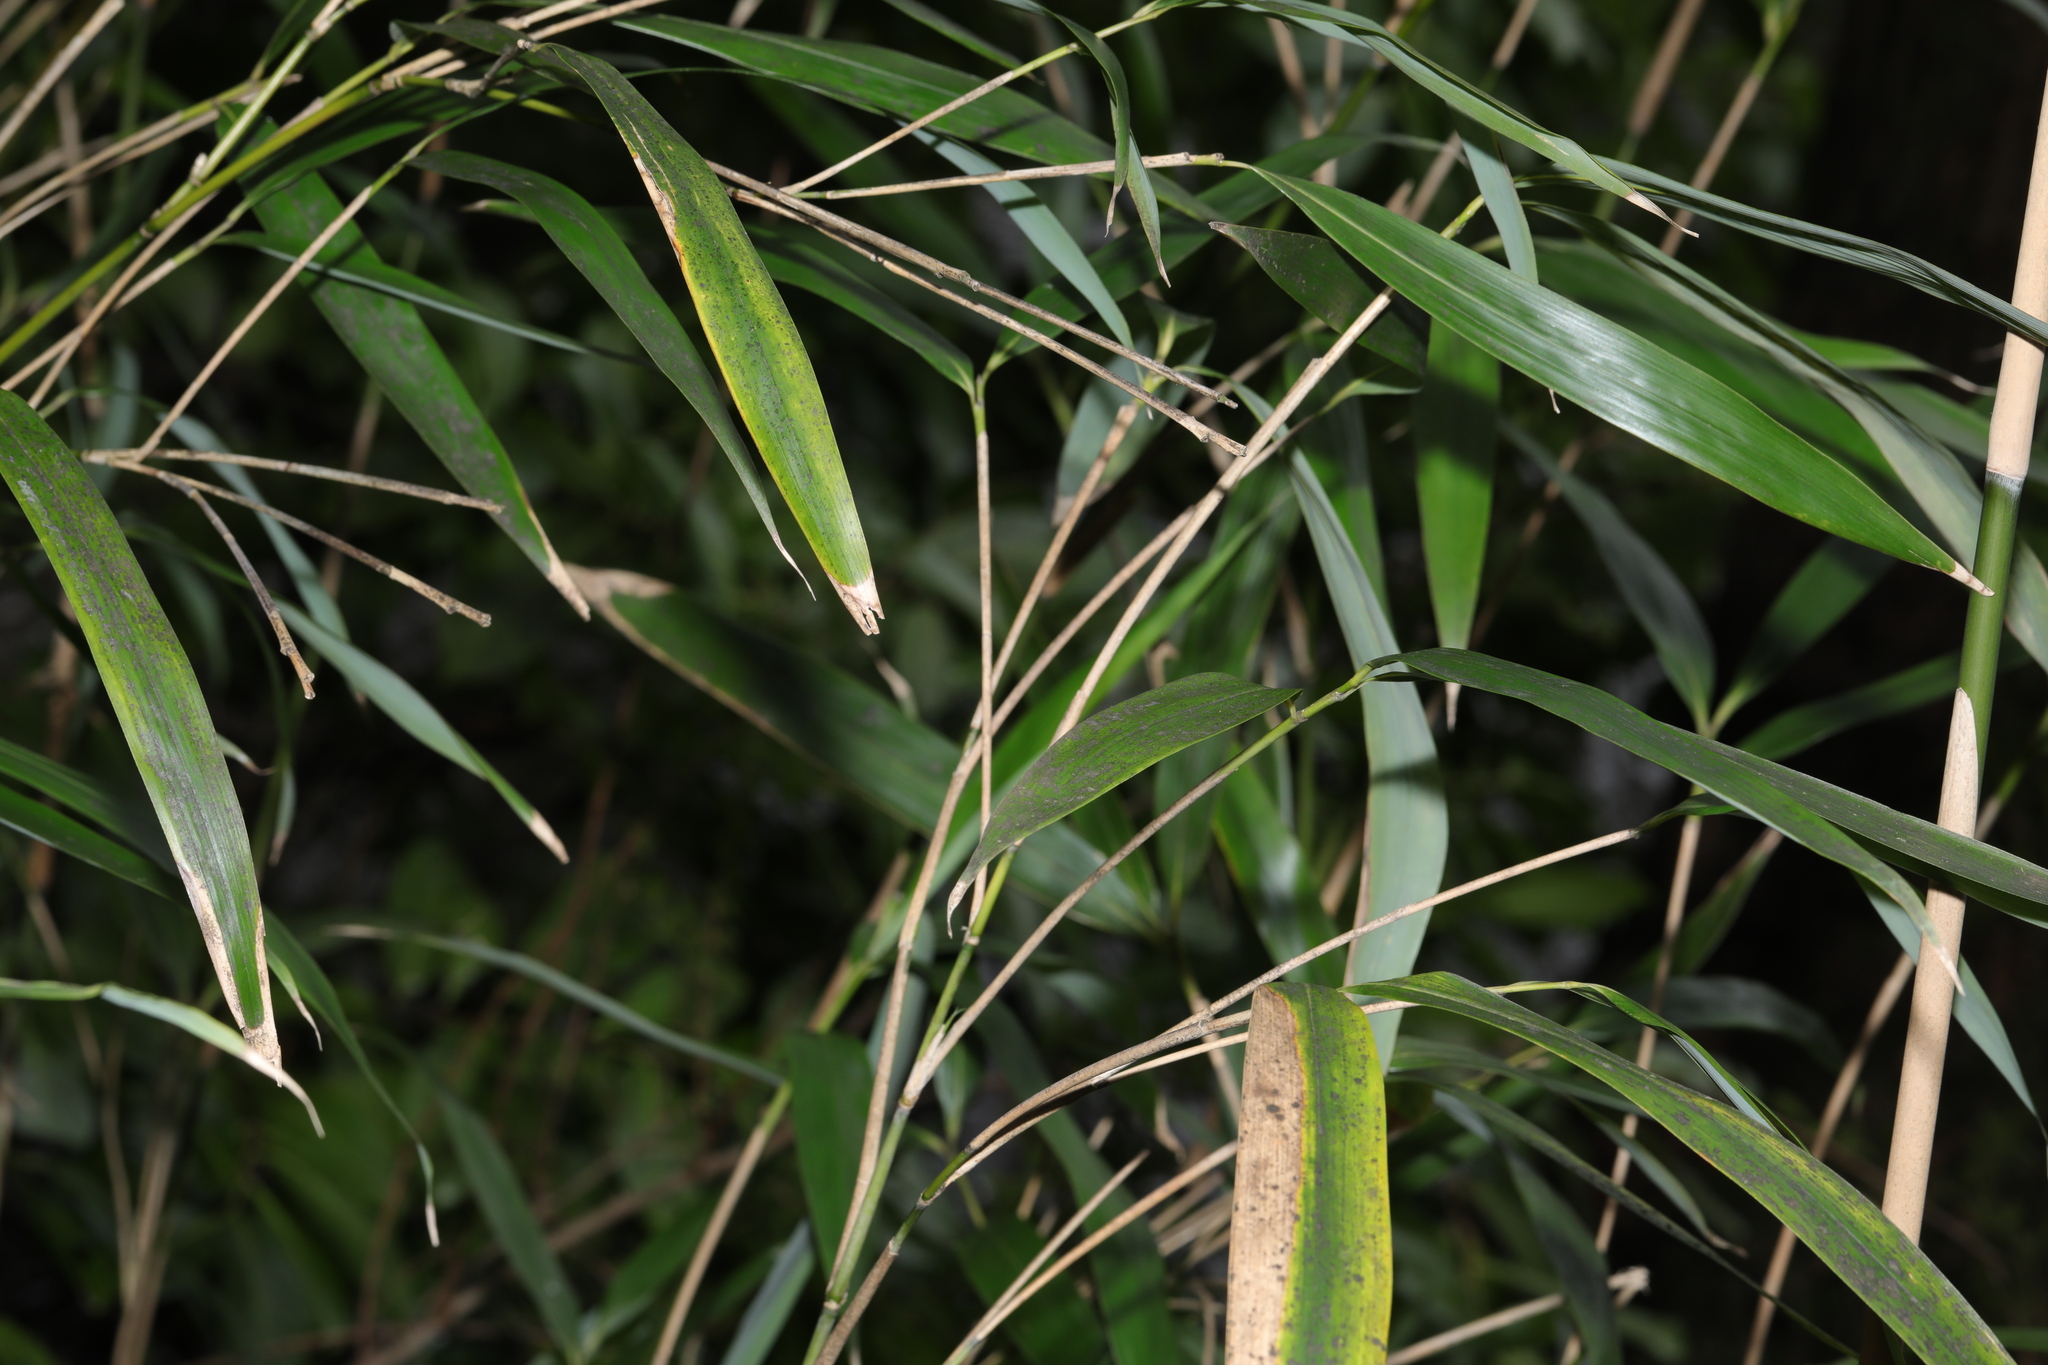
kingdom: Plantae
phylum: Tracheophyta
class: Liliopsida
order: Poales
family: Poaceae
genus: Pseudosasa
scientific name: Pseudosasa japonica
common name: Arrow bamboo
